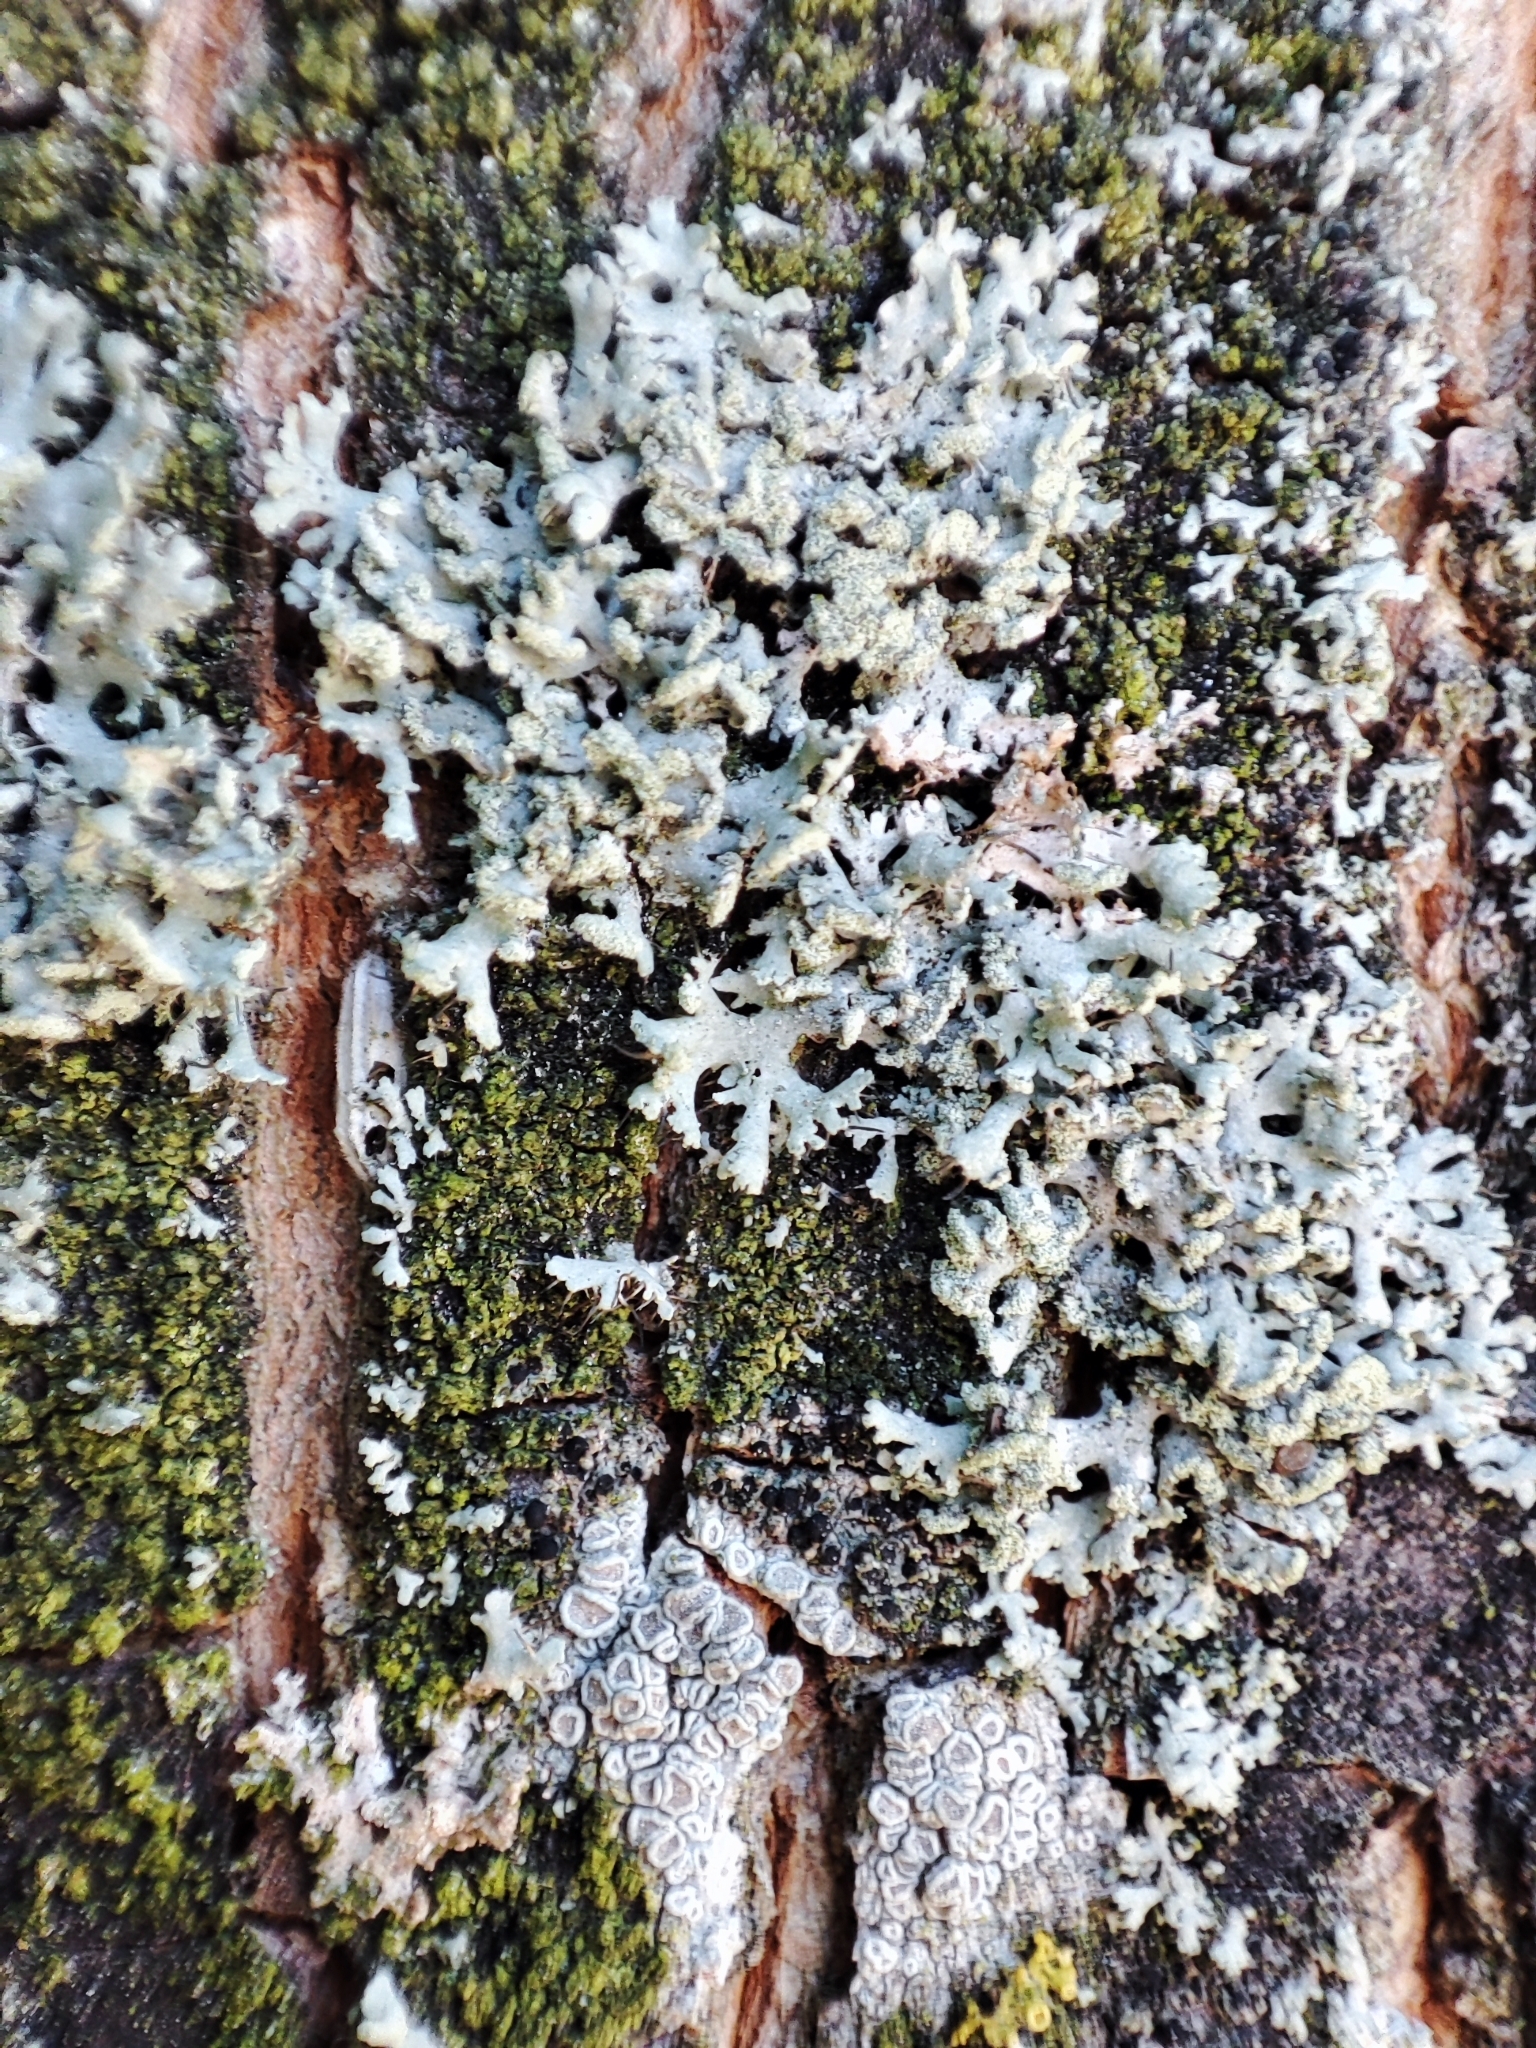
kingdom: Fungi
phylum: Ascomycota
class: Lecanoromycetes
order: Caliciales
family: Physciaceae
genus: Physcia
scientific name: Physcia tenella
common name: Fringed rosette lichen
